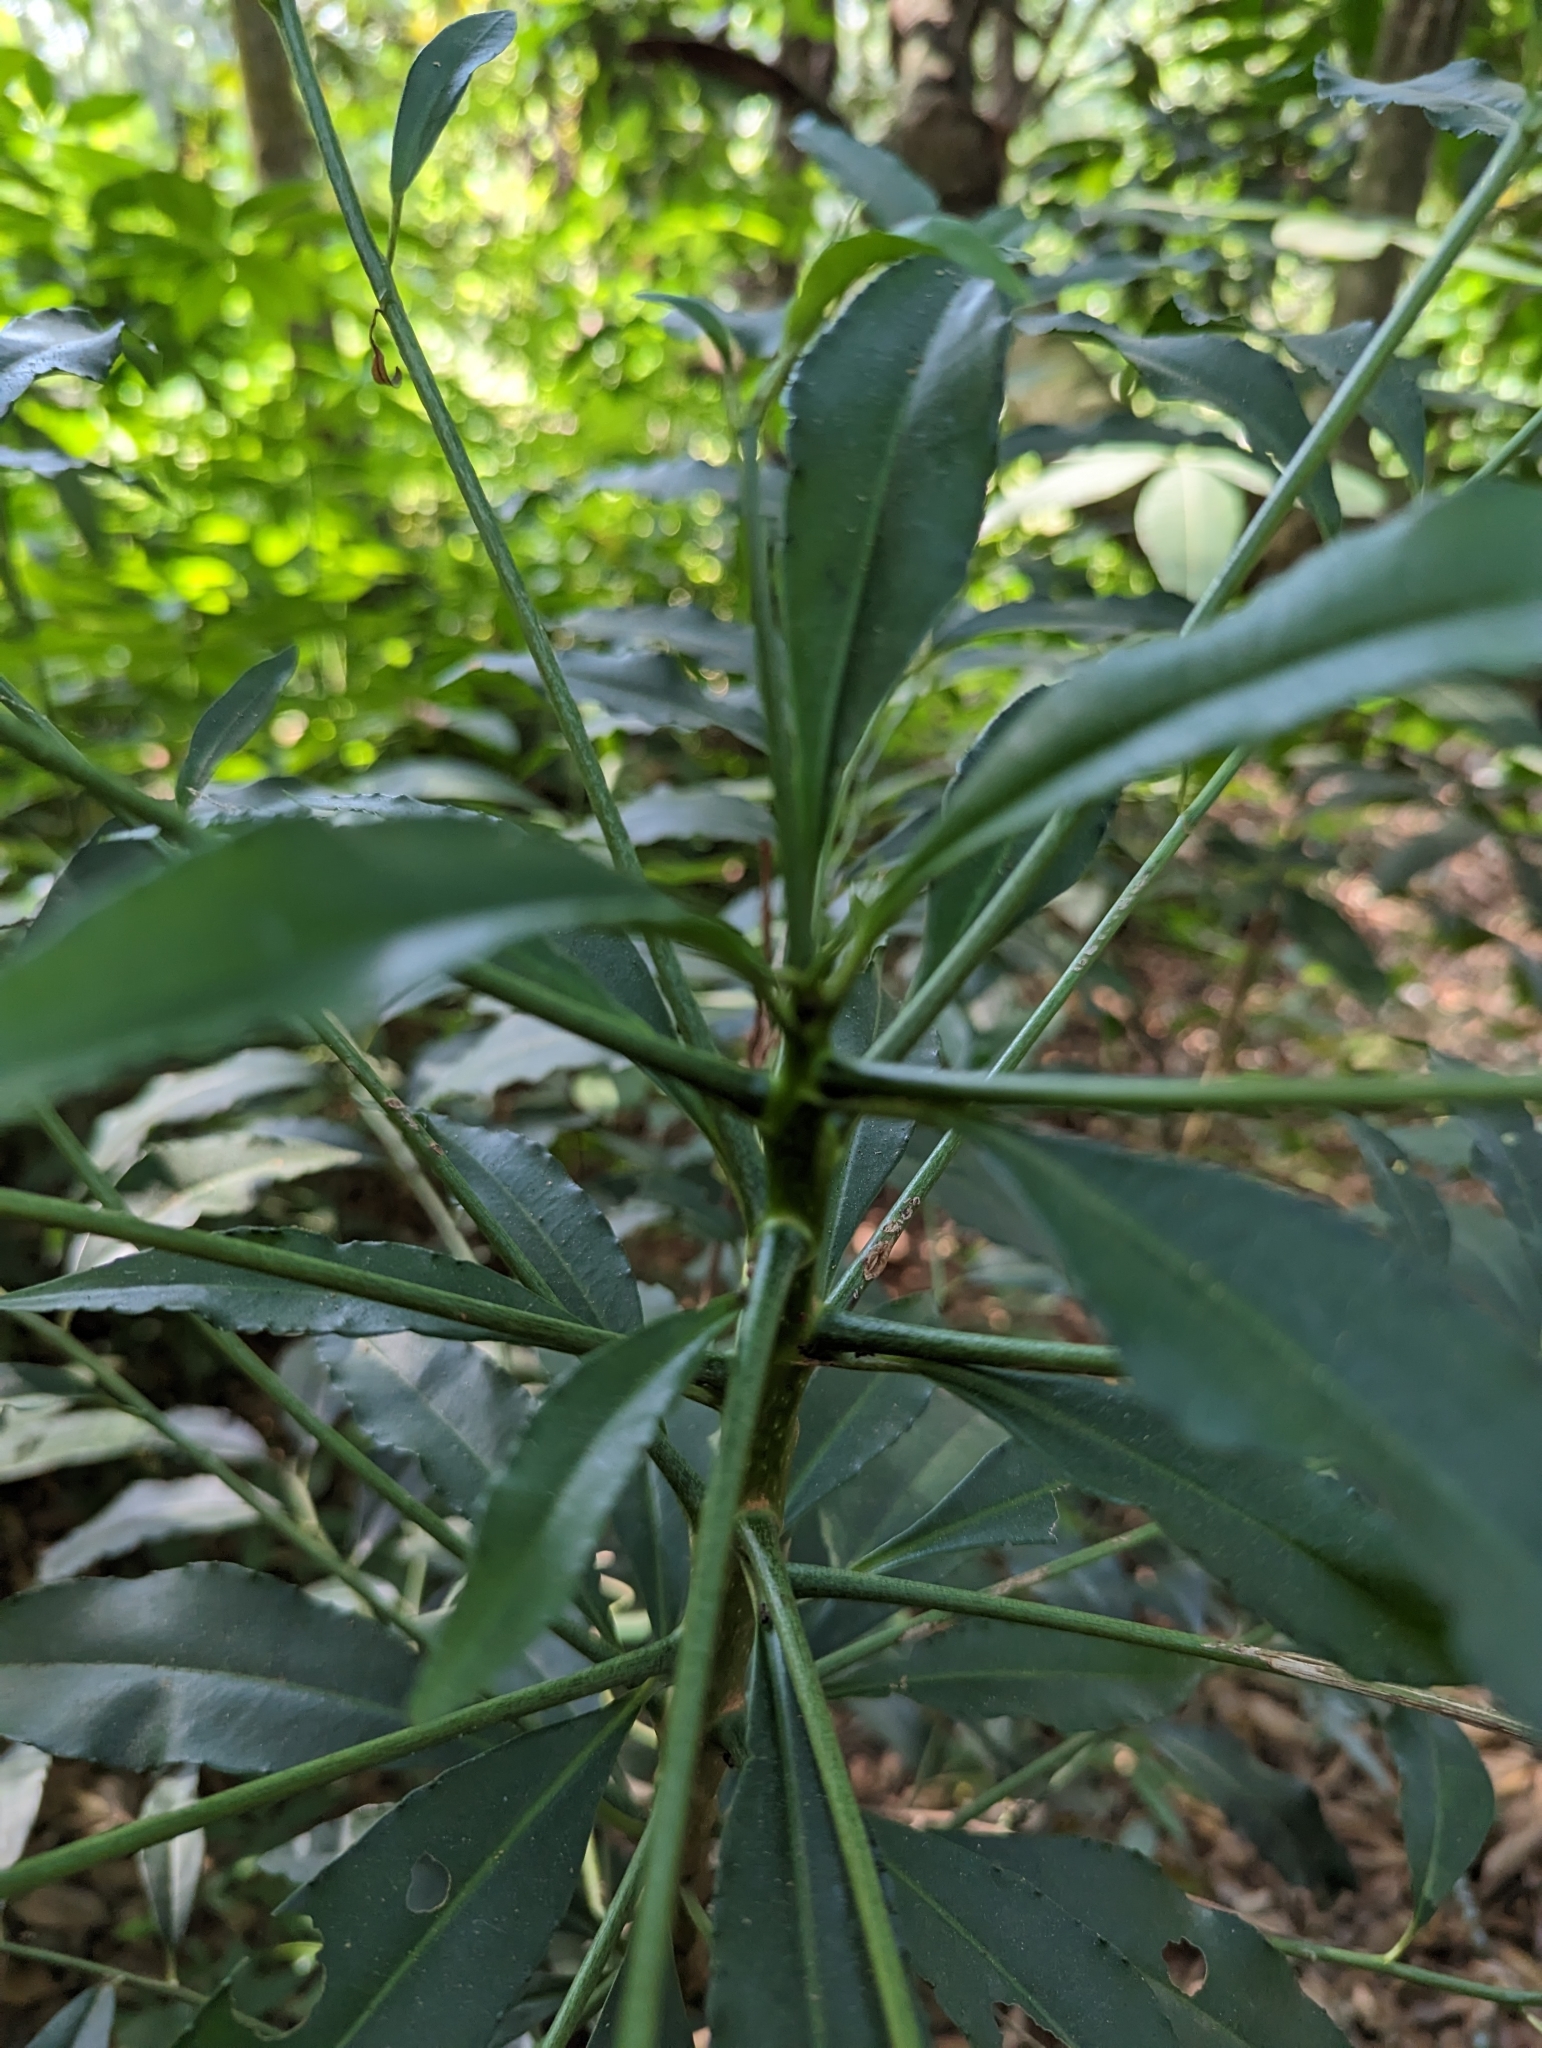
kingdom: Plantae
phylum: Tracheophyta
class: Magnoliopsida
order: Ericales
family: Primulaceae
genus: Ardisia
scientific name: Ardisia polysticta
